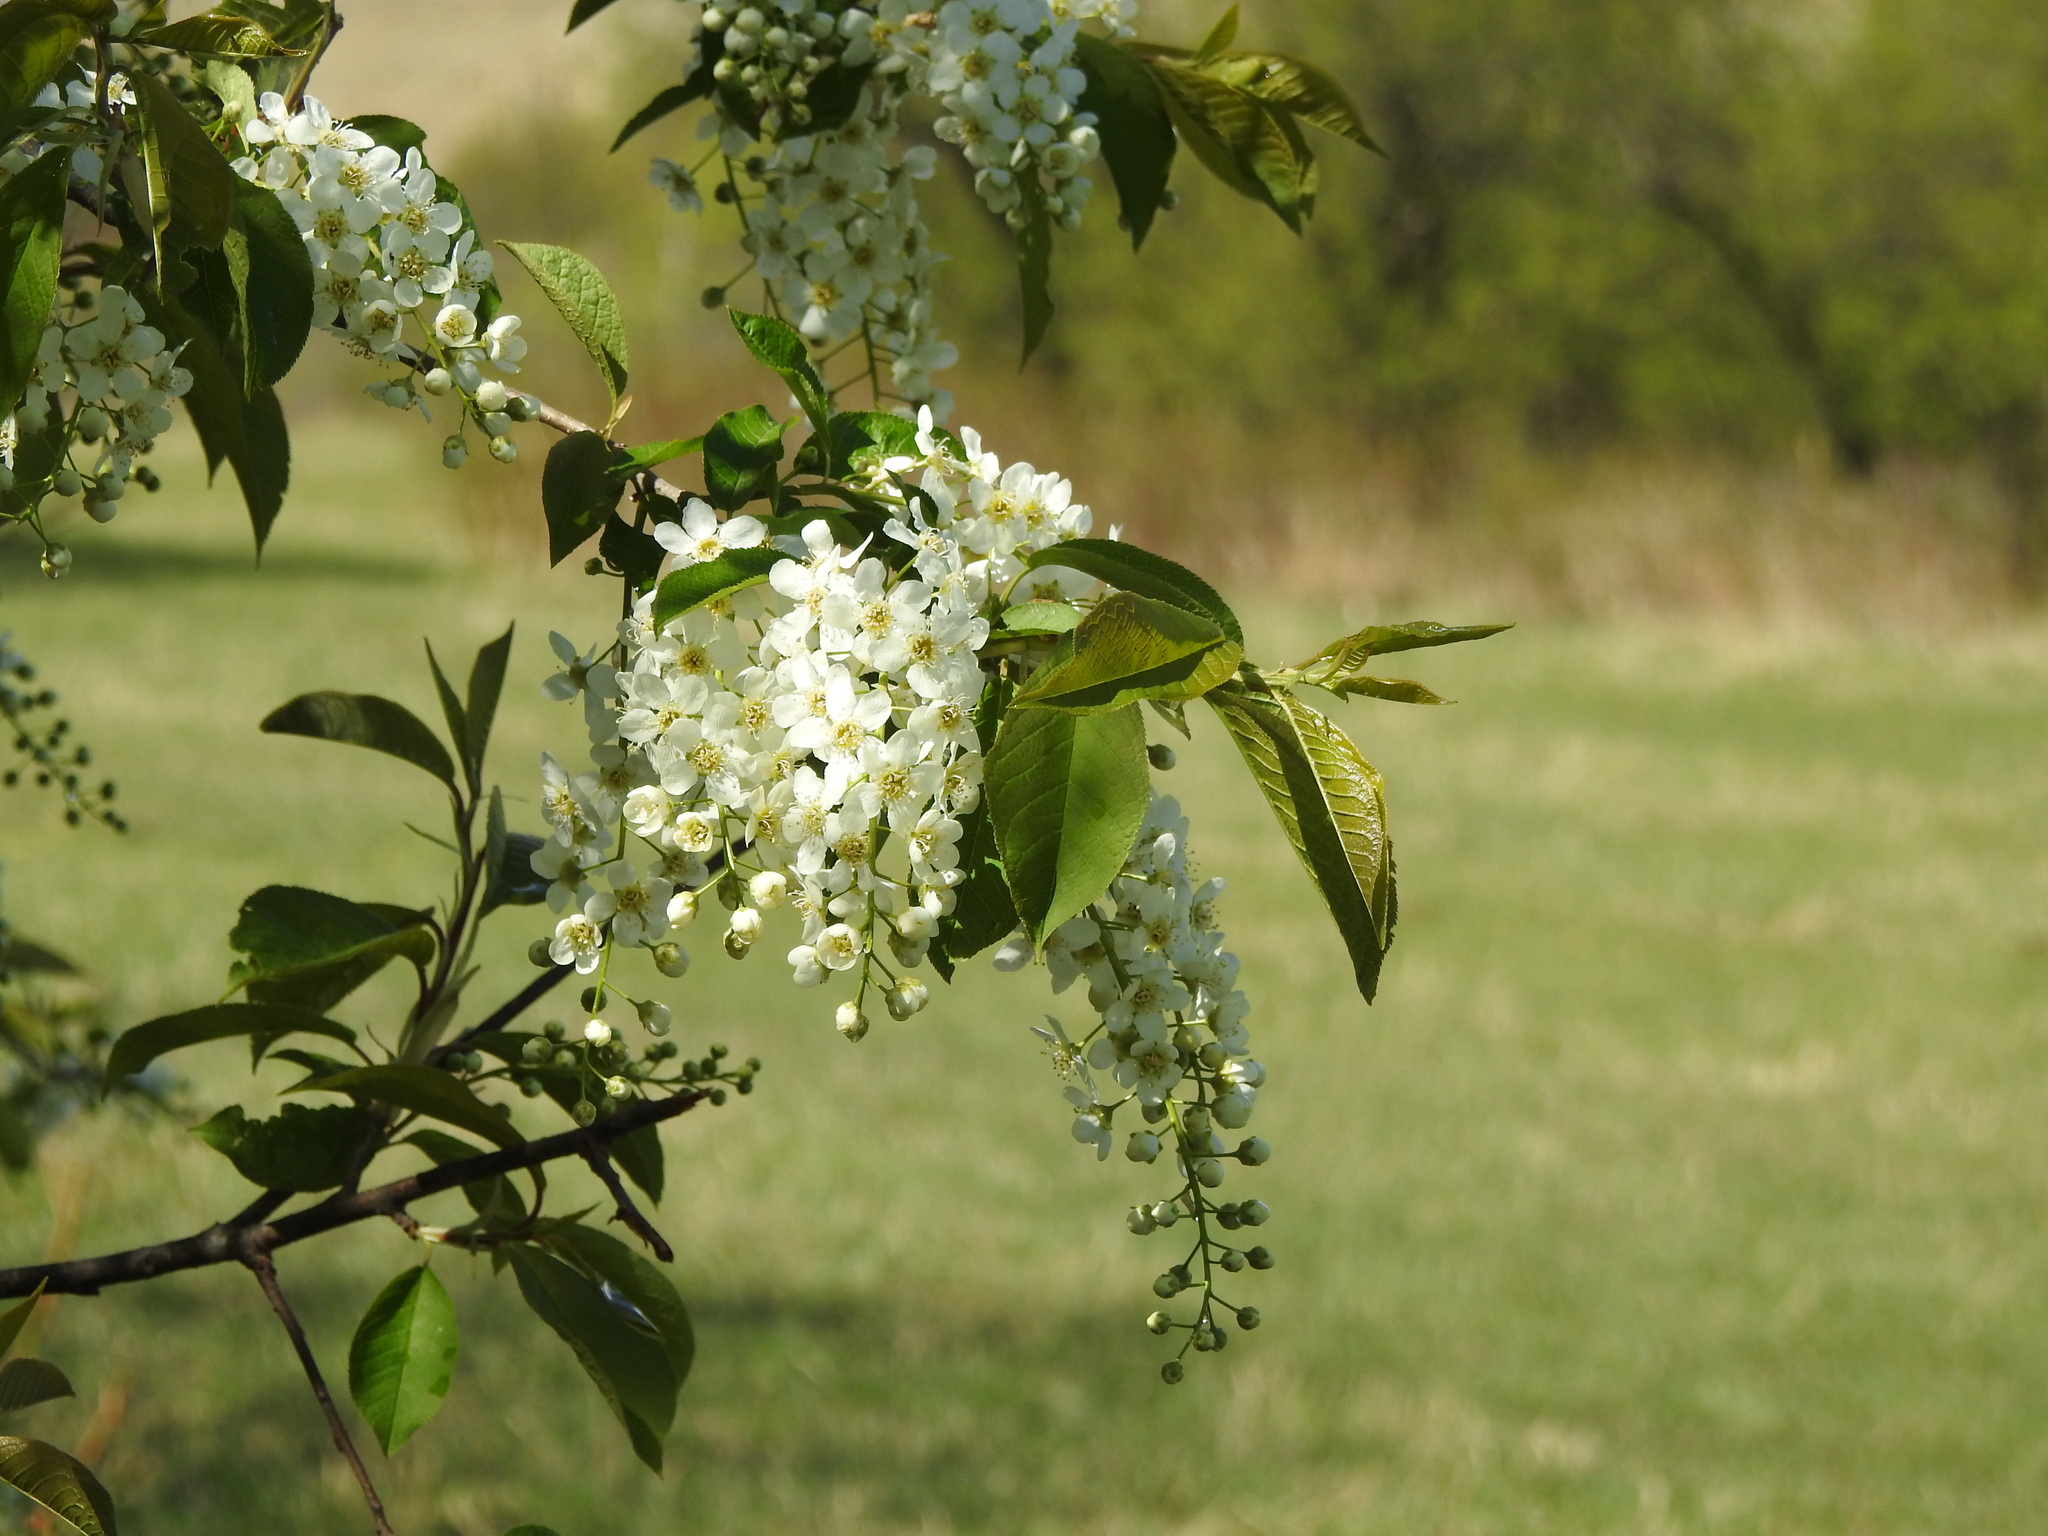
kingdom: Plantae
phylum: Tracheophyta
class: Magnoliopsida
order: Rosales
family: Rosaceae
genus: Prunus
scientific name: Prunus padus
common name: Bird cherry
